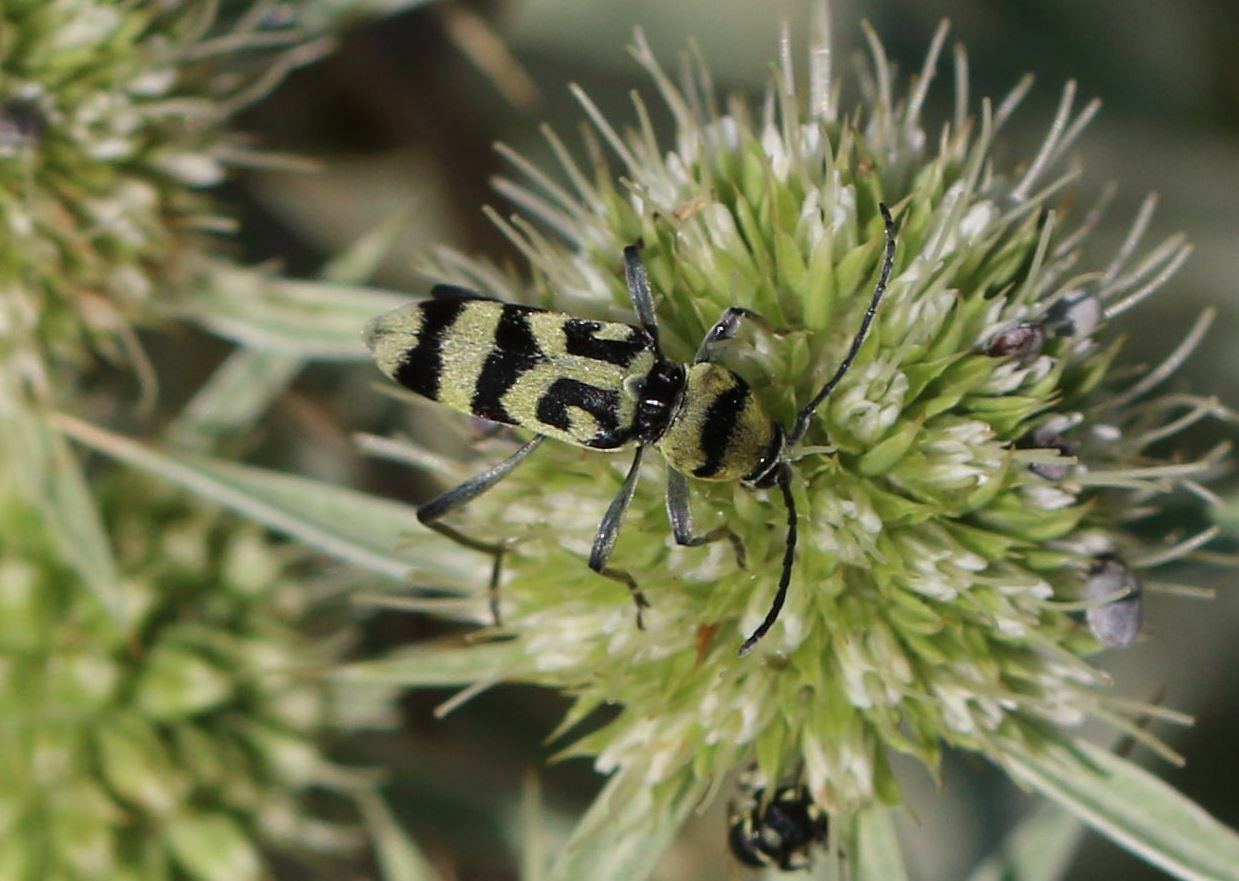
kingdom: Animalia
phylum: Arthropoda
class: Insecta
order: Coleoptera
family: Cerambycidae
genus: Chlorophorus
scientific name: Chlorophorus varius
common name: Grape wood borer
